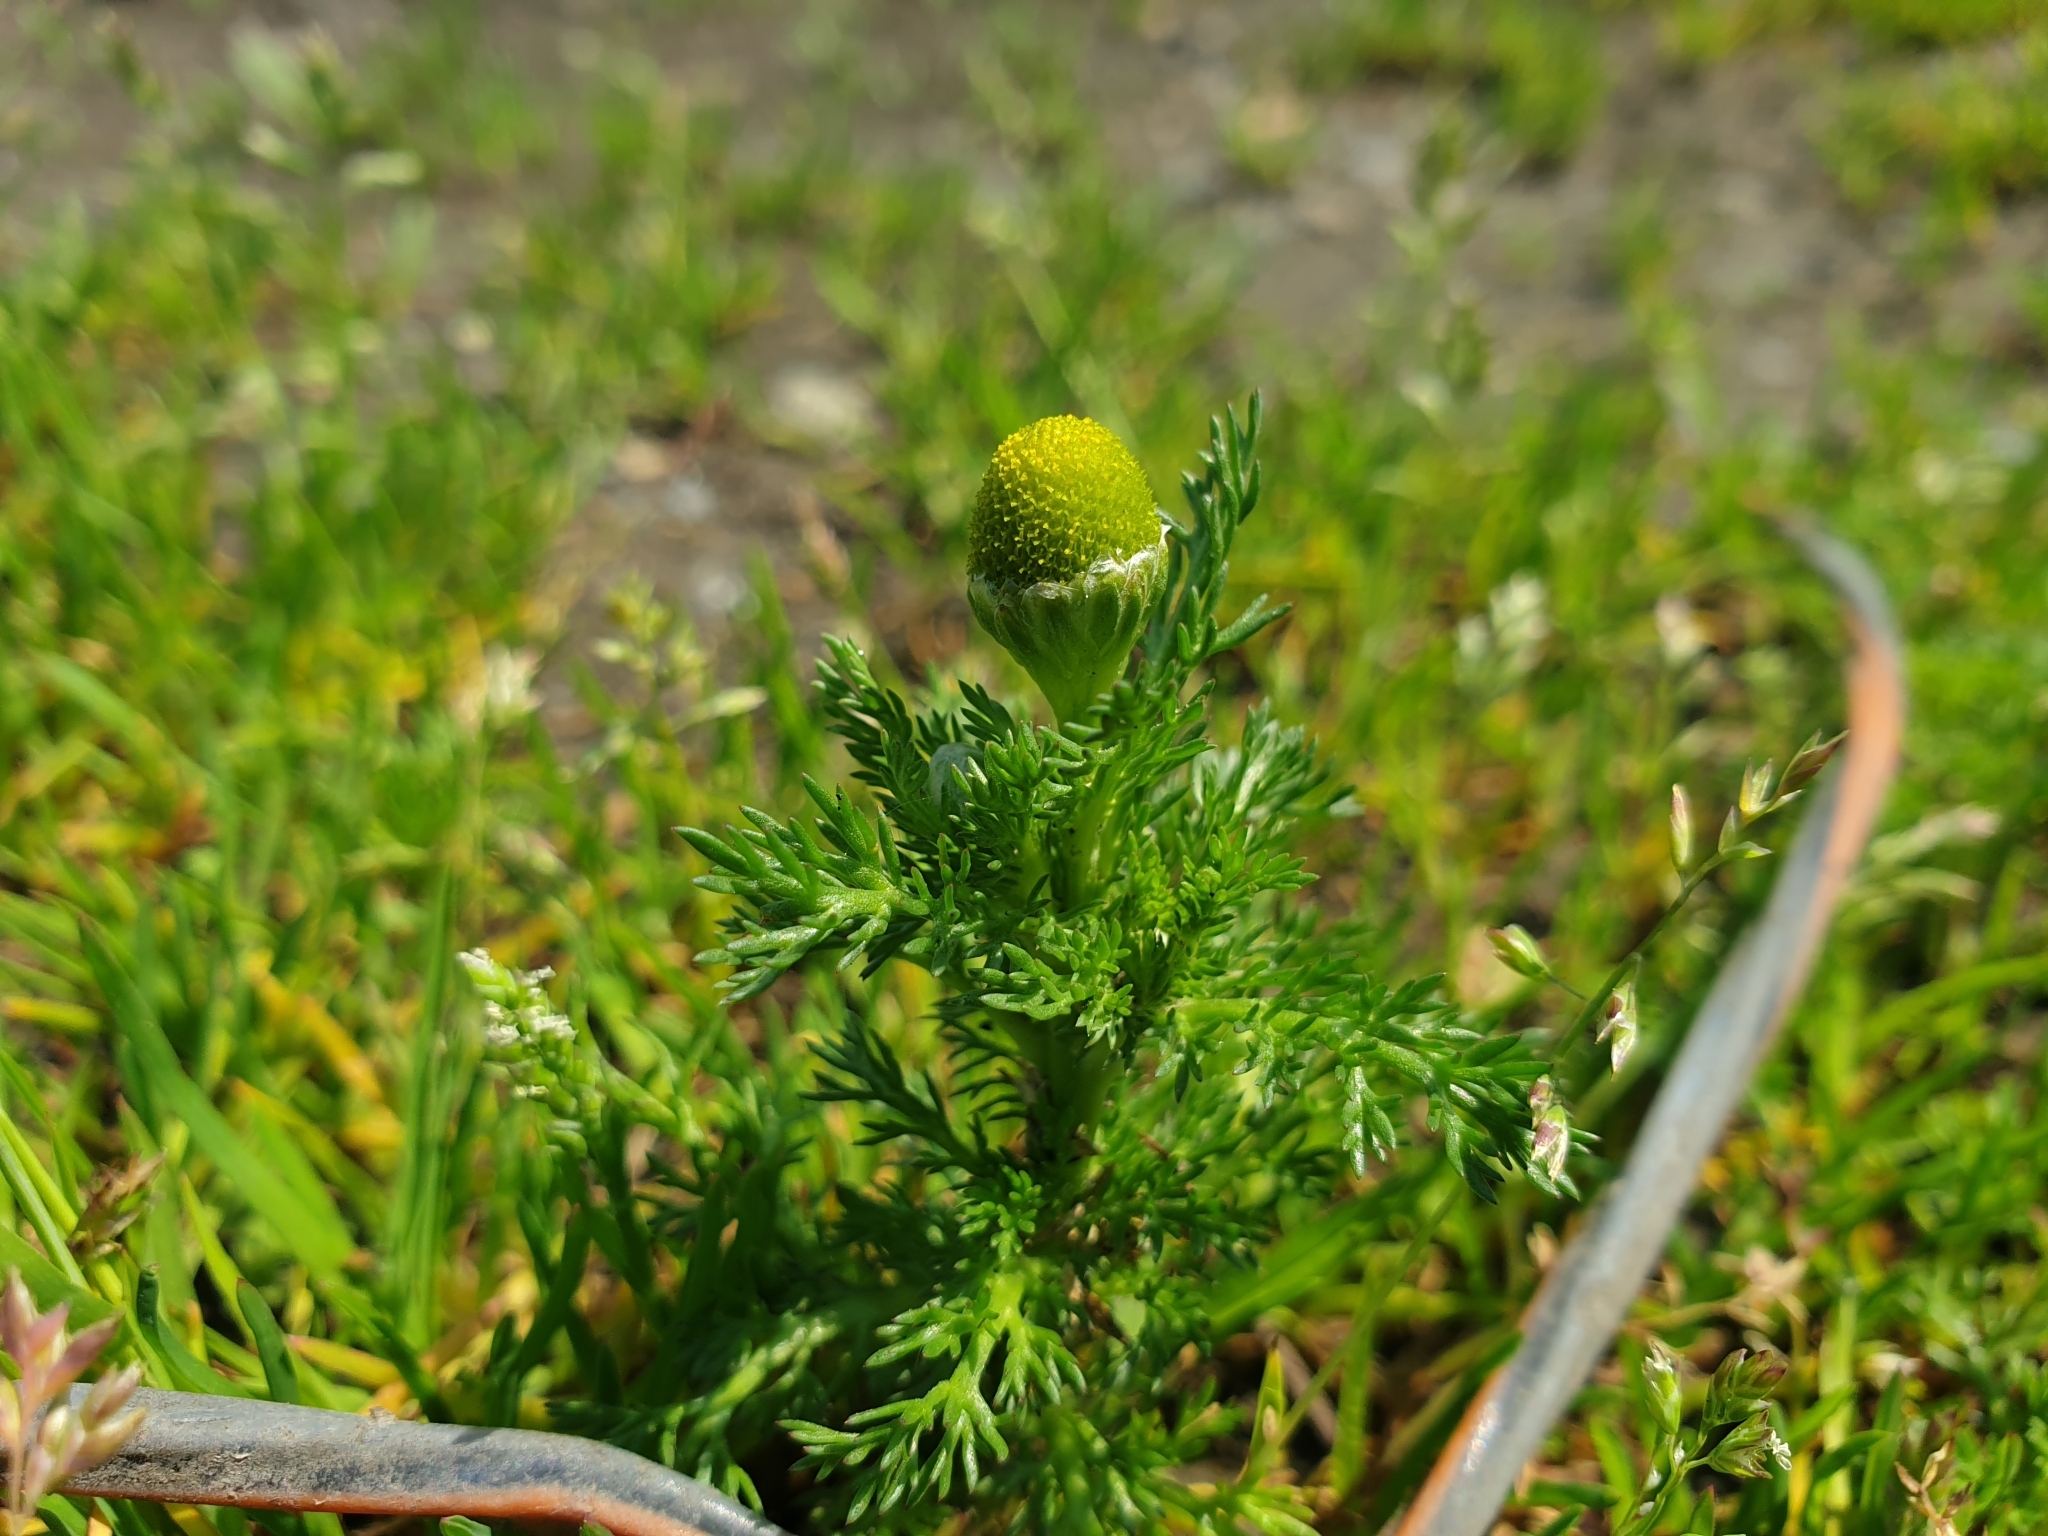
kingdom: Plantae
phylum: Tracheophyta
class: Magnoliopsida
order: Asterales
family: Asteraceae
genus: Matricaria
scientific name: Matricaria discoidea
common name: Disc mayweed
